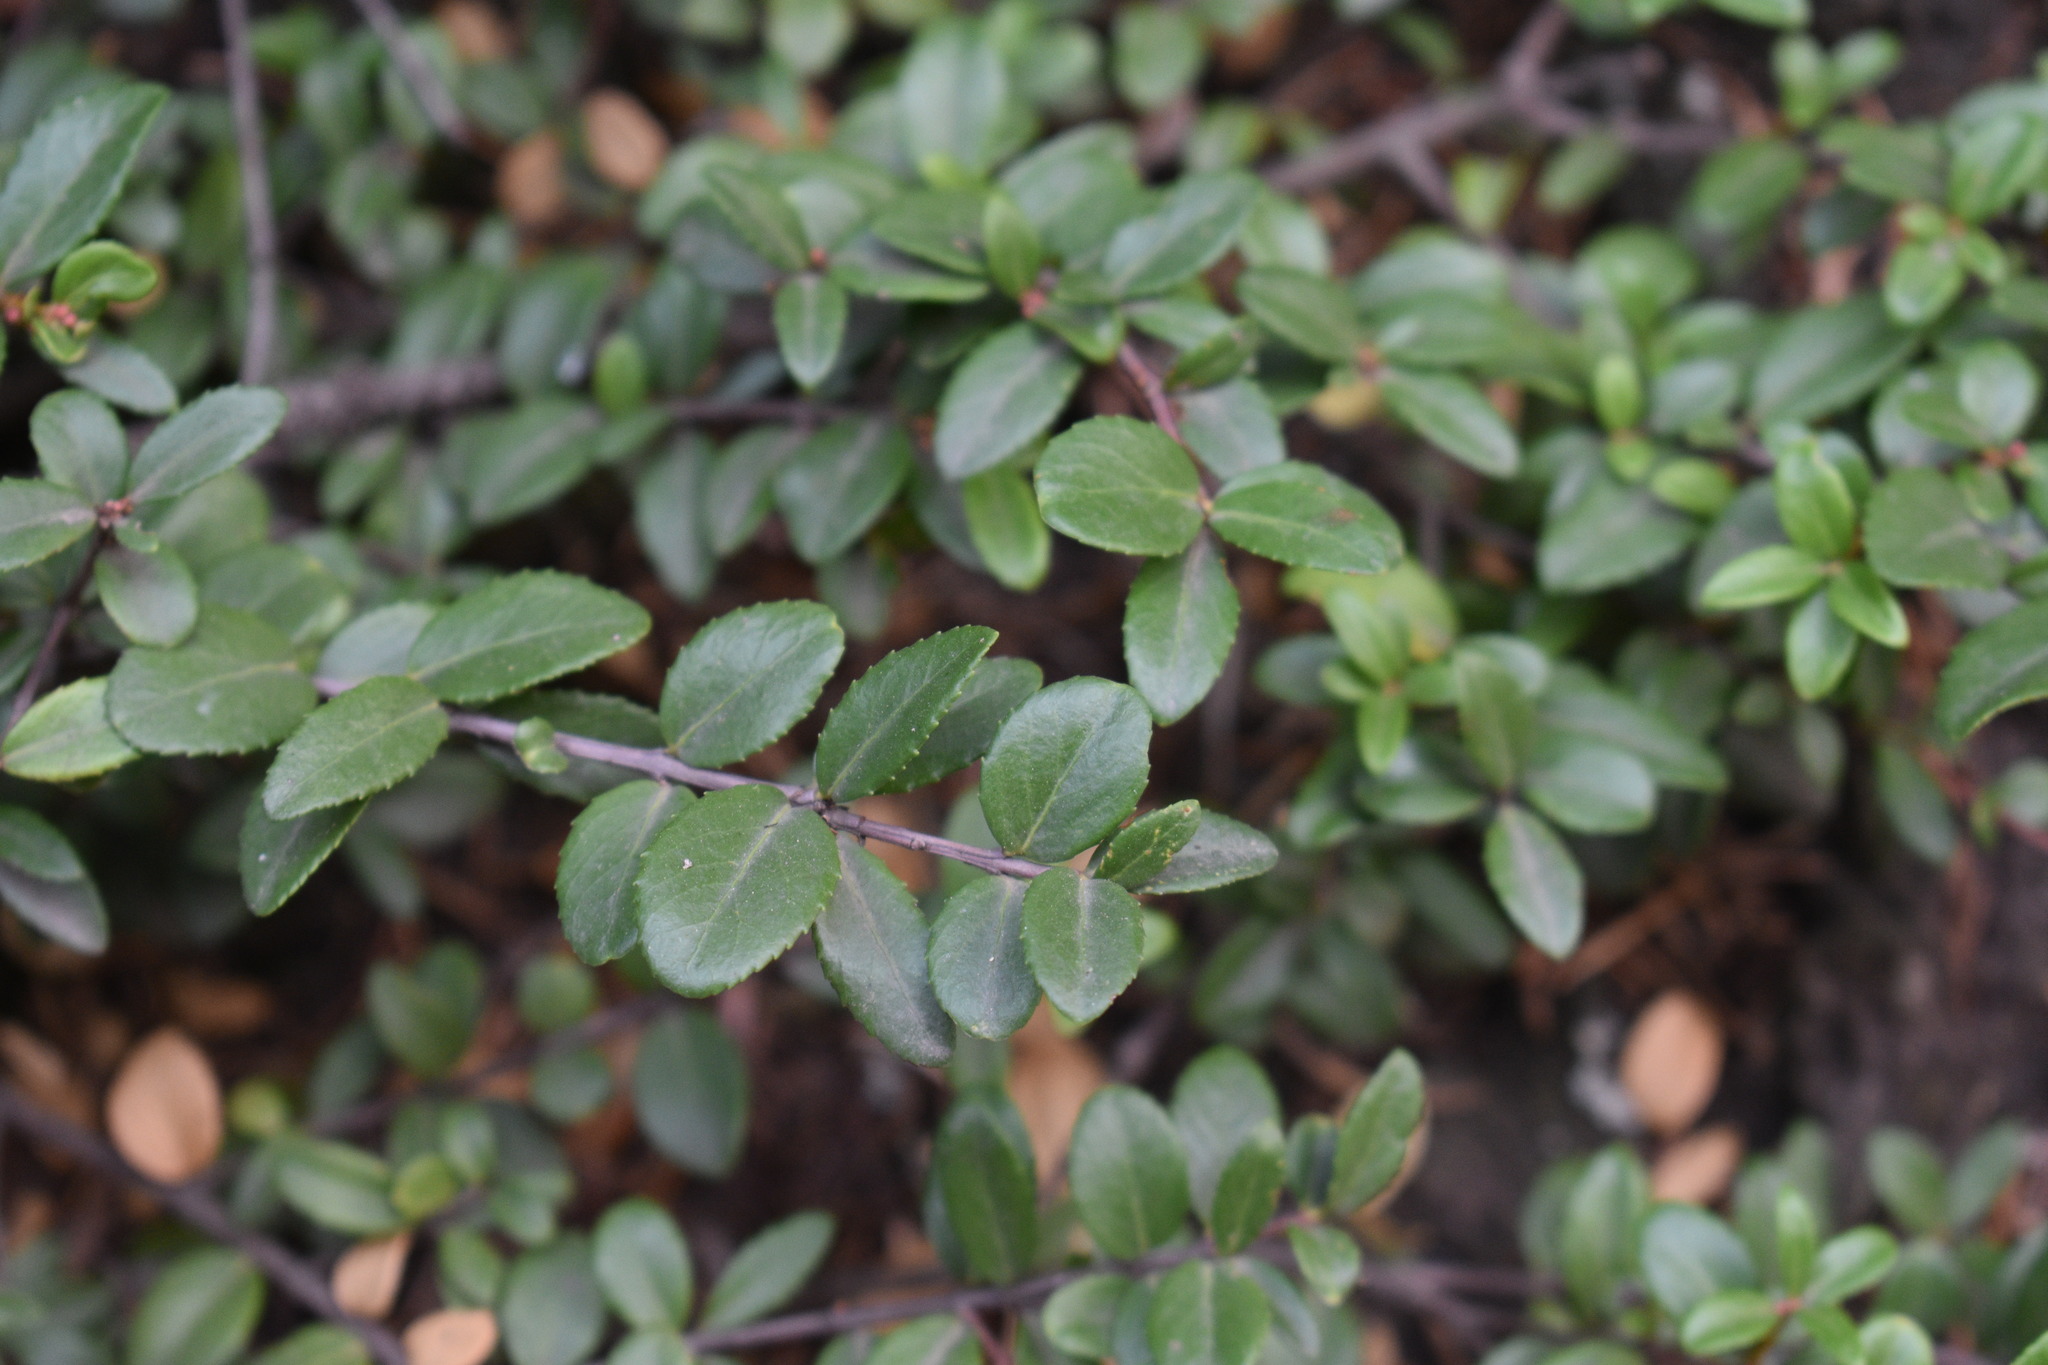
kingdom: Plantae
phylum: Tracheophyta
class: Magnoliopsida
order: Celastrales
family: Celastraceae
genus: Paxistima
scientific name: Paxistima myrsinites
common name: Mountain-lover
